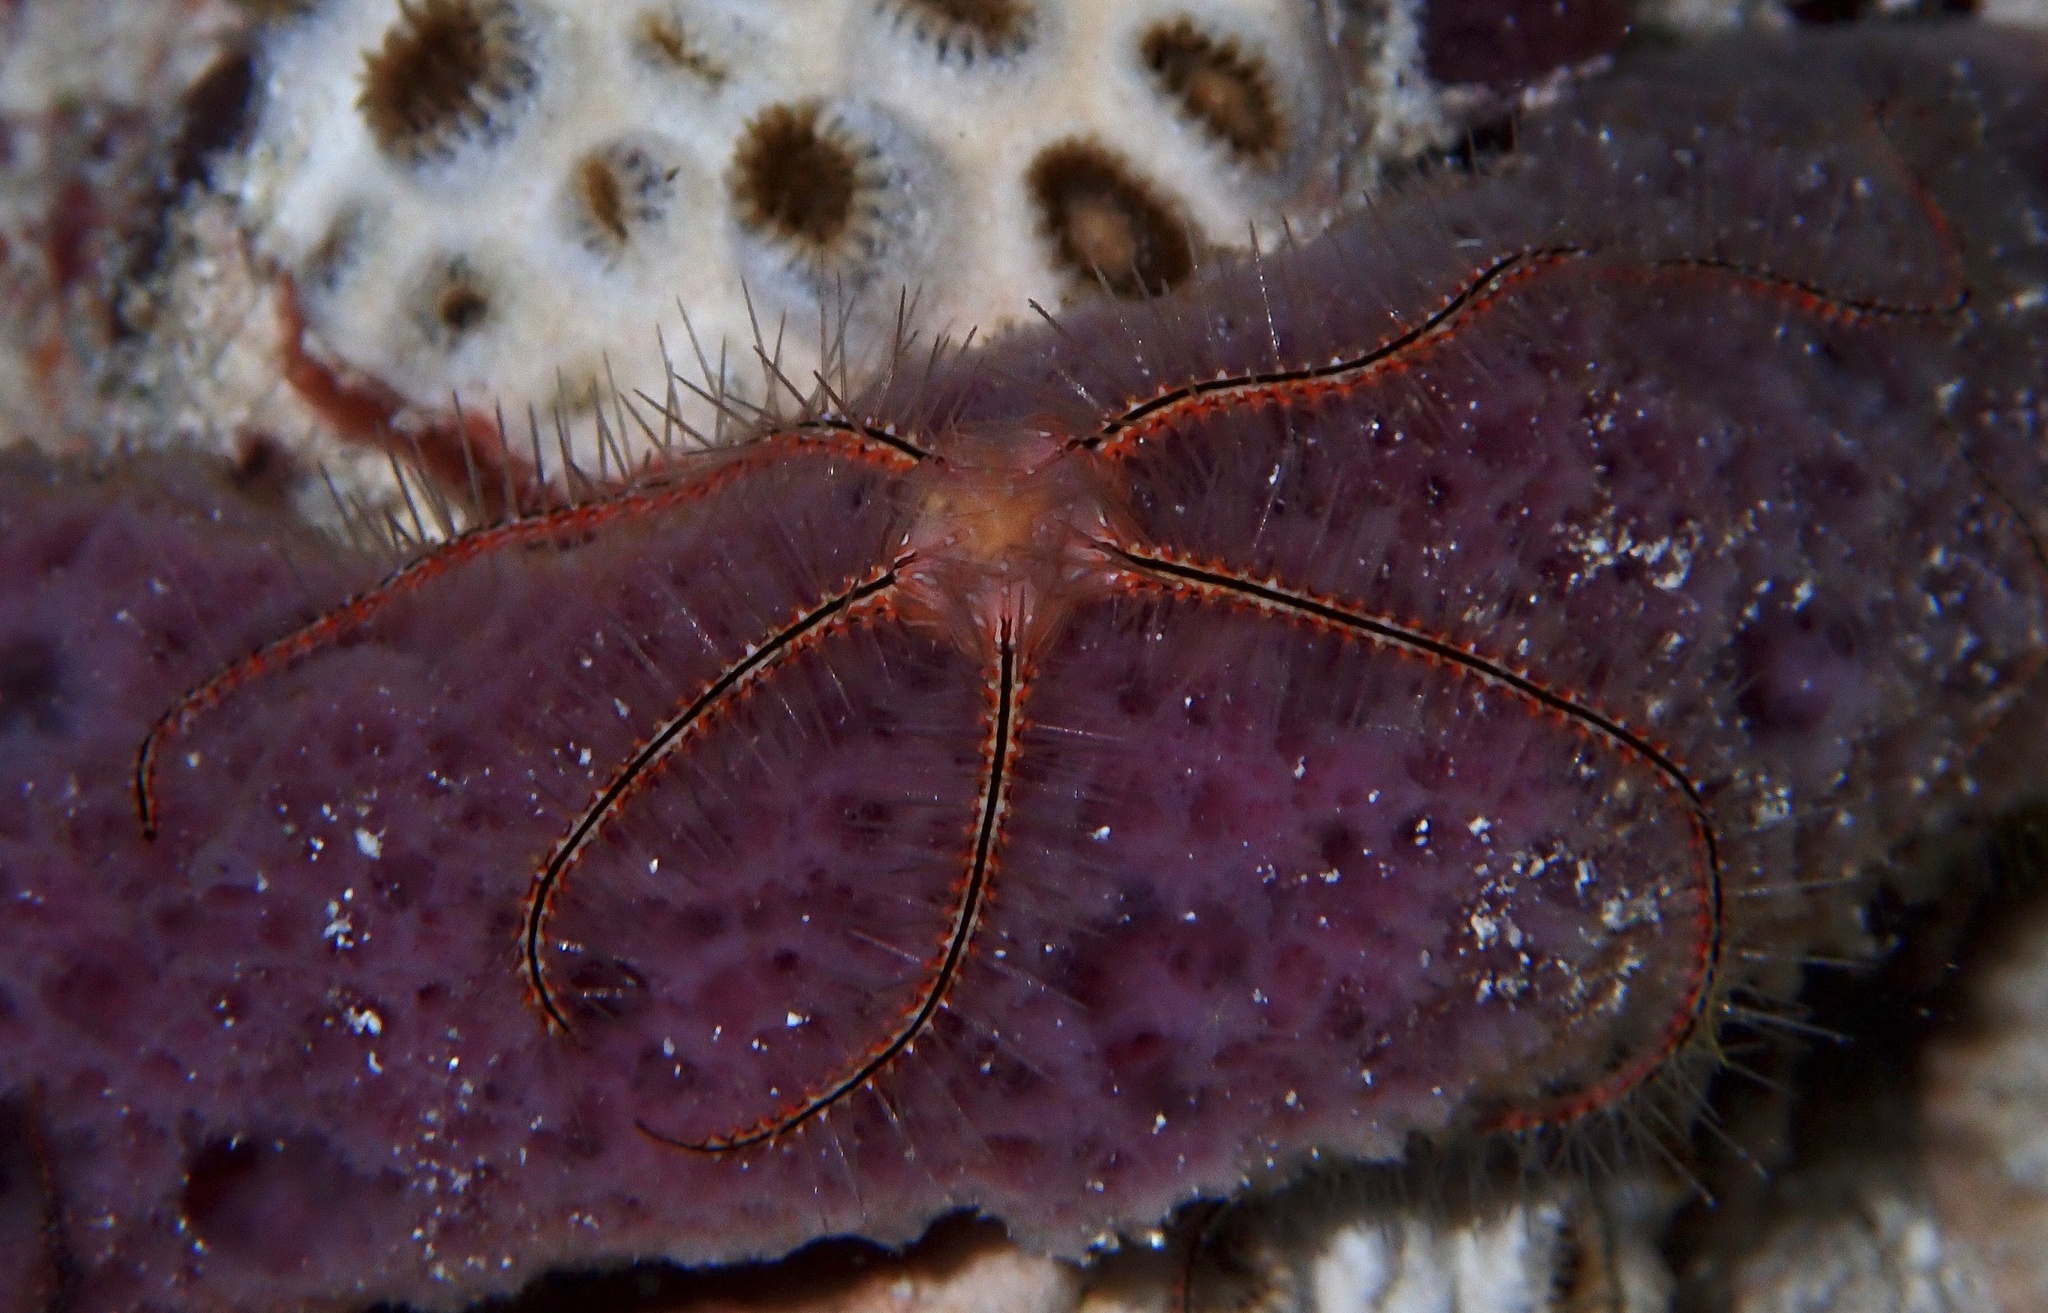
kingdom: Animalia
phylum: Echinodermata
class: Ophiuroidea
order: Amphilepidida
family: Ophiotrichidae
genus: Ophiothrix
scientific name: Ophiothrix suensonii
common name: Sponge brittle star
